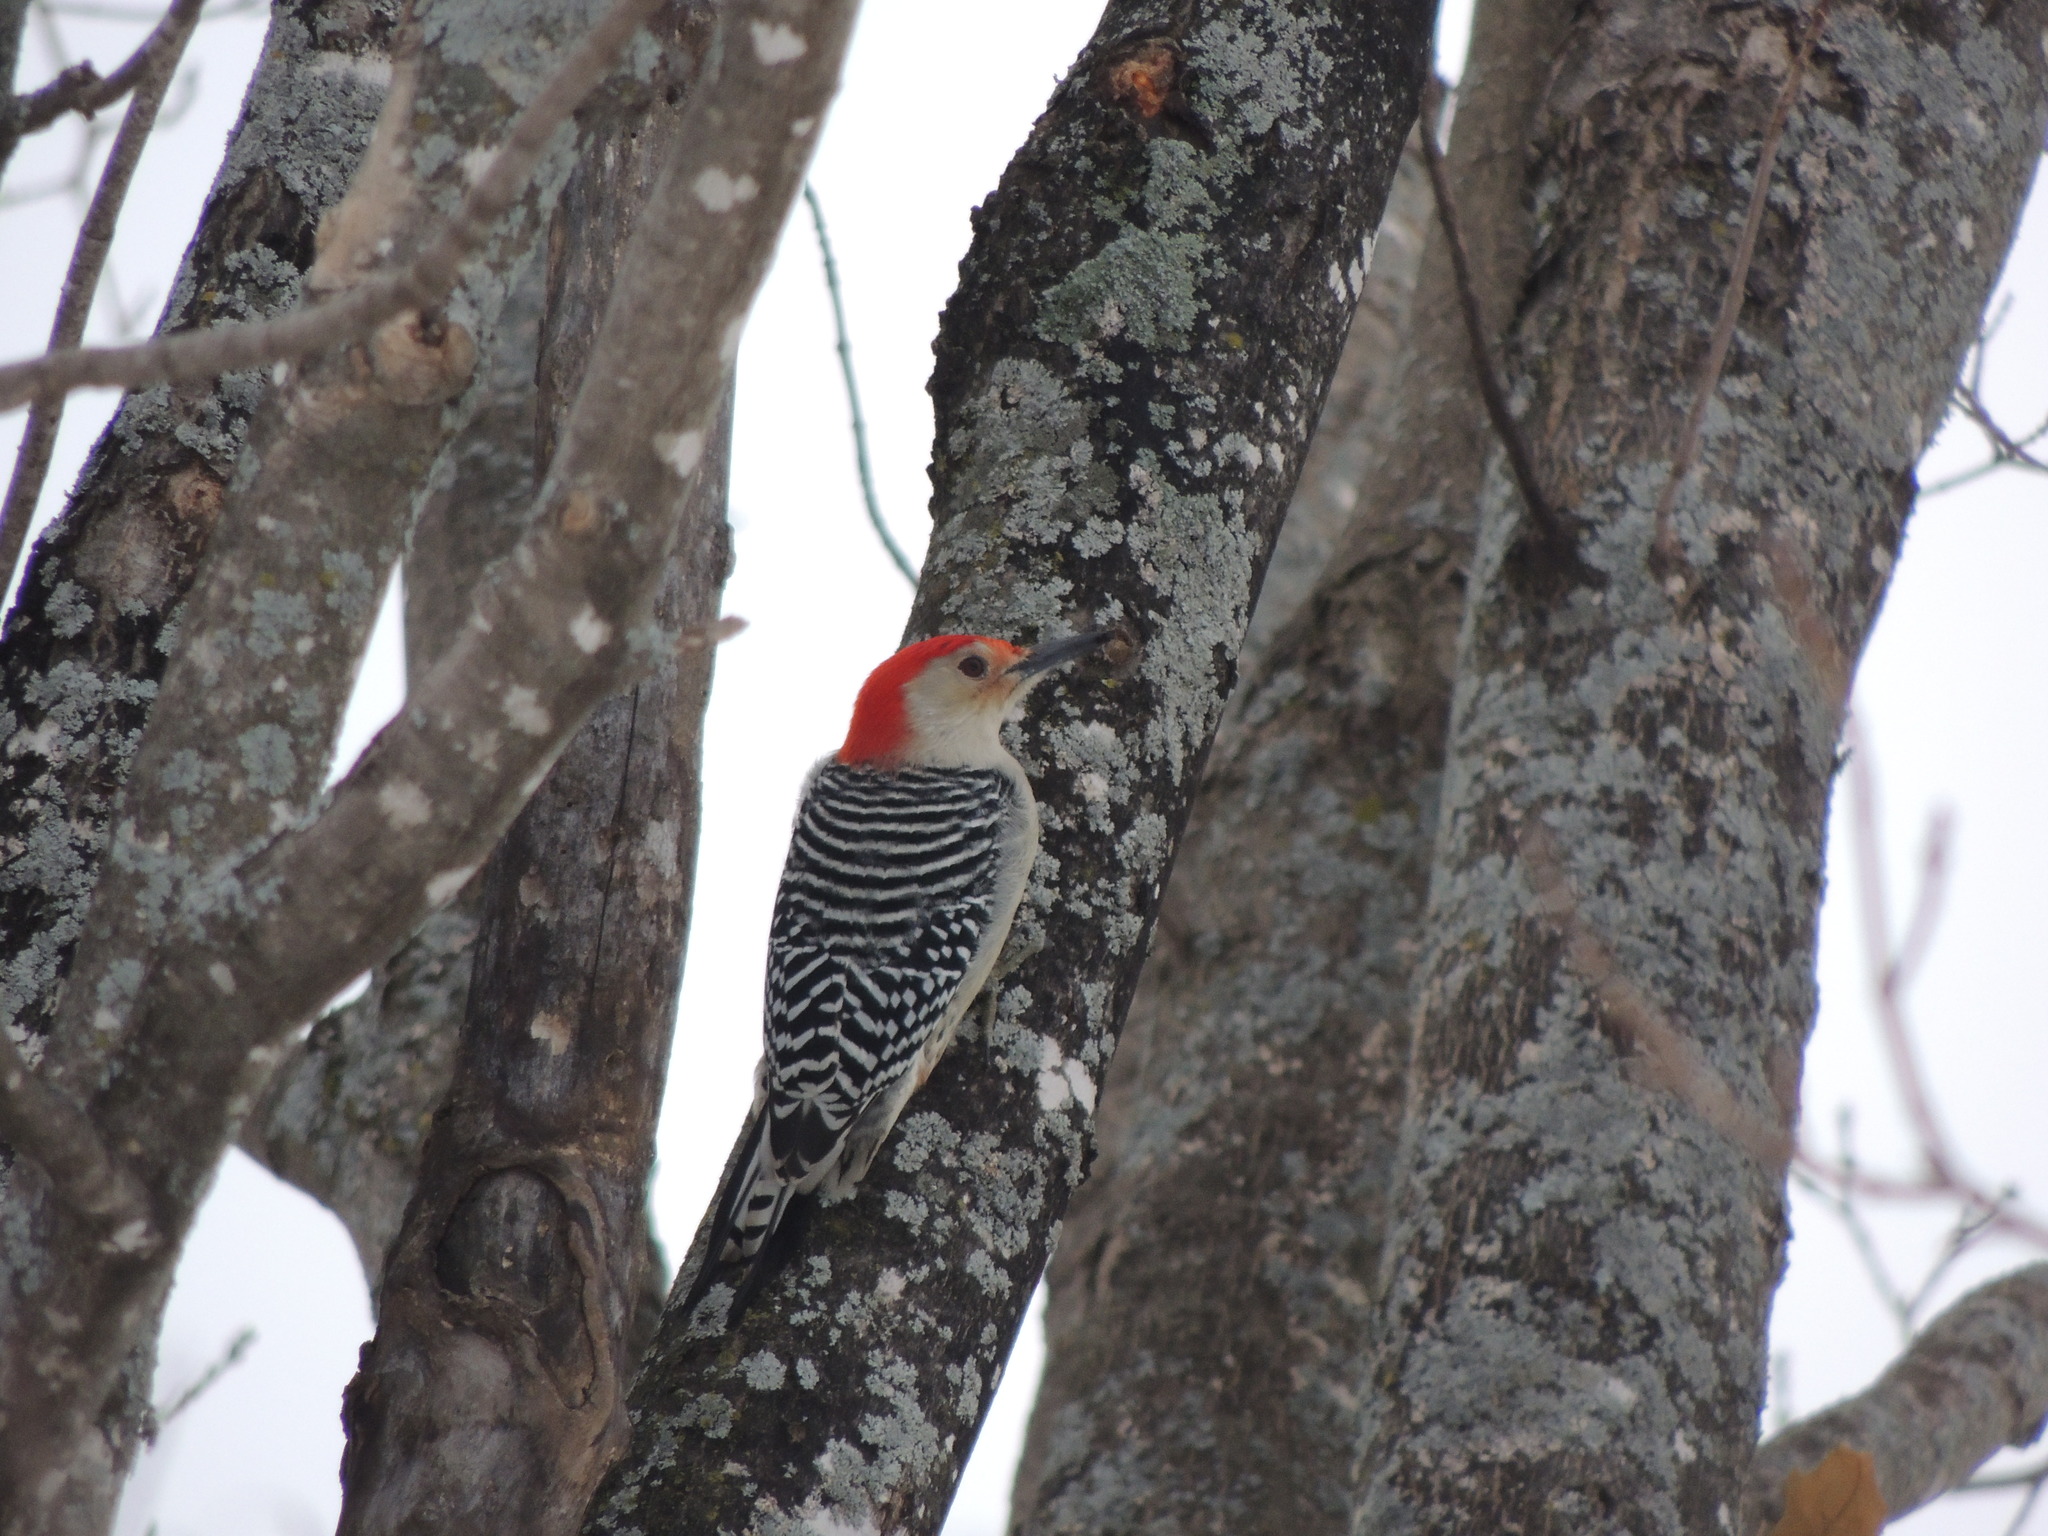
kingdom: Animalia
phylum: Chordata
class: Aves
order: Piciformes
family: Picidae
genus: Melanerpes
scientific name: Melanerpes carolinus
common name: Red-bellied woodpecker
